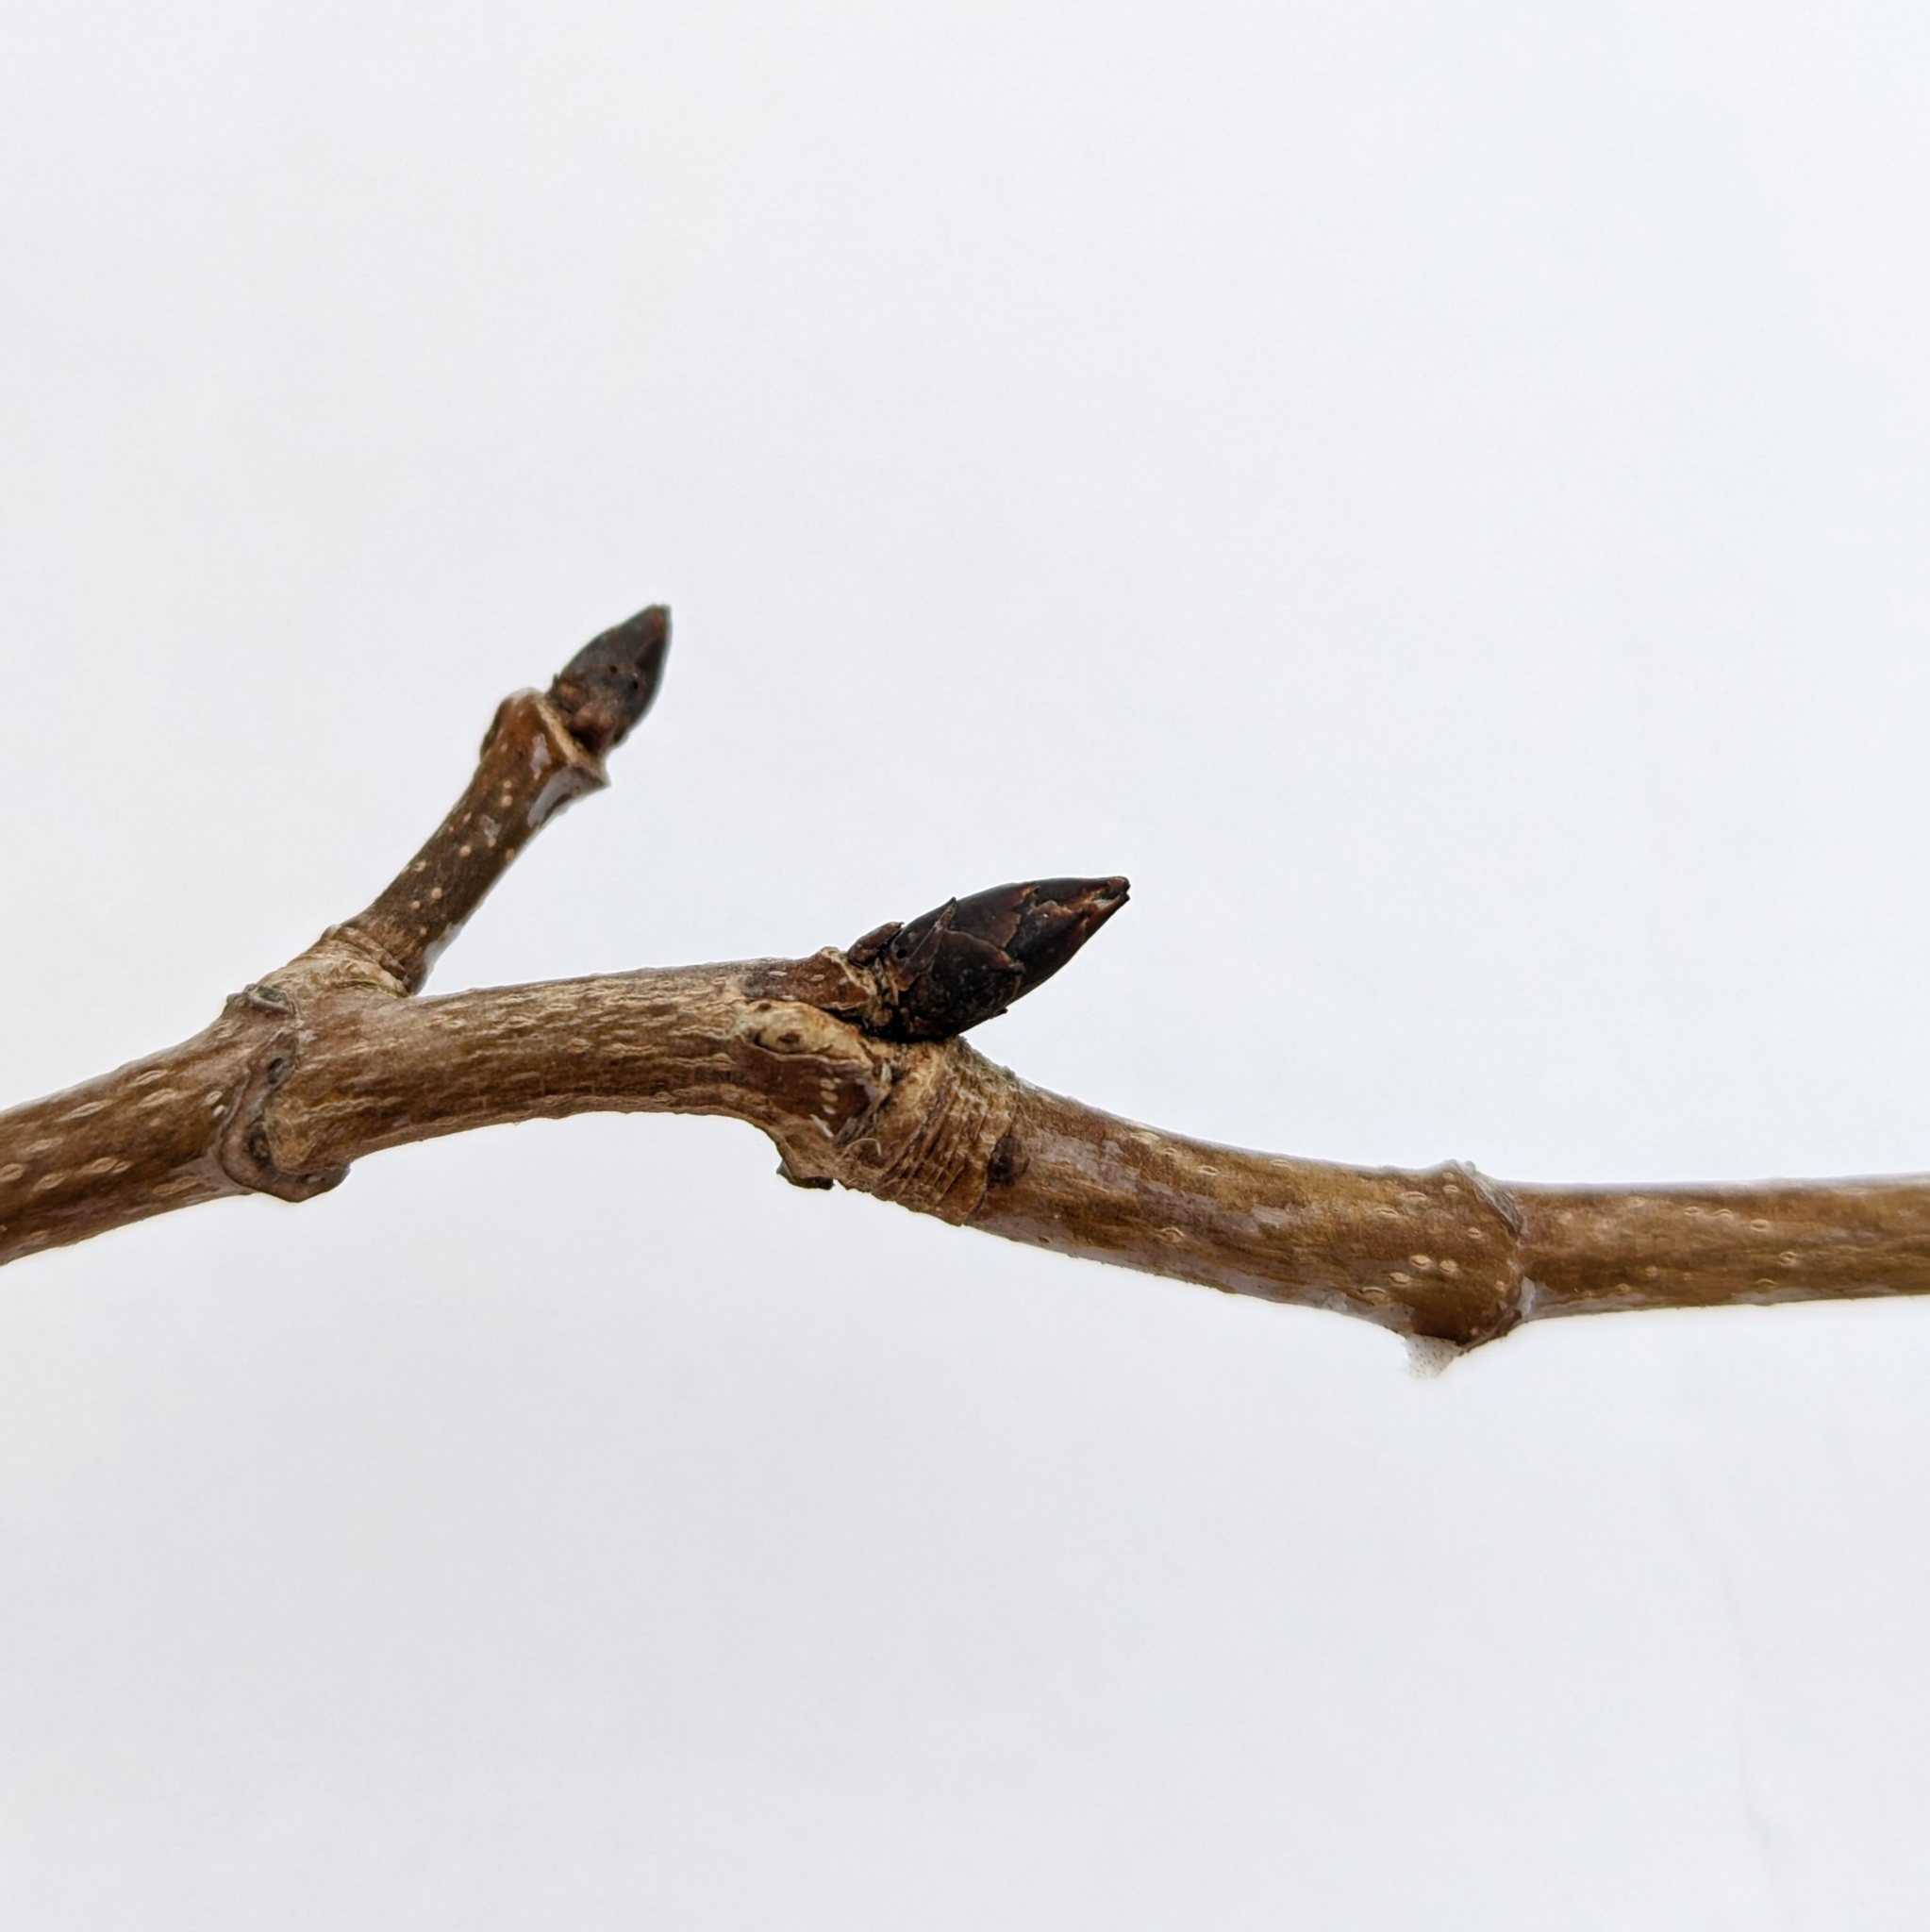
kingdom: Plantae
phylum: Tracheophyta
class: Magnoliopsida
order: Sapindales
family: Sapindaceae
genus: Acer
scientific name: Acer saccharum
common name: Sugar maple
